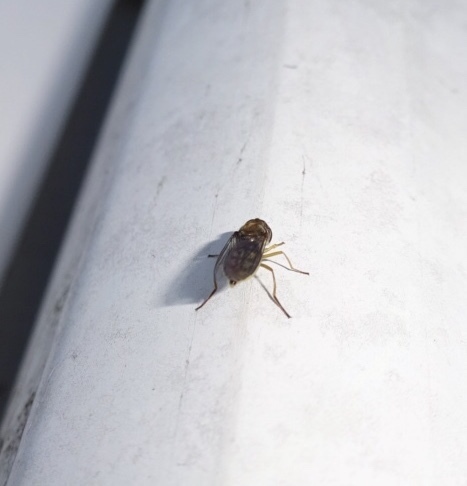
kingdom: Animalia
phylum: Arthropoda
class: Insecta
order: Diptera
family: Syrphidae
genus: Toxomerus
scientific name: Toxomerus marginatus
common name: Syrphid fly
